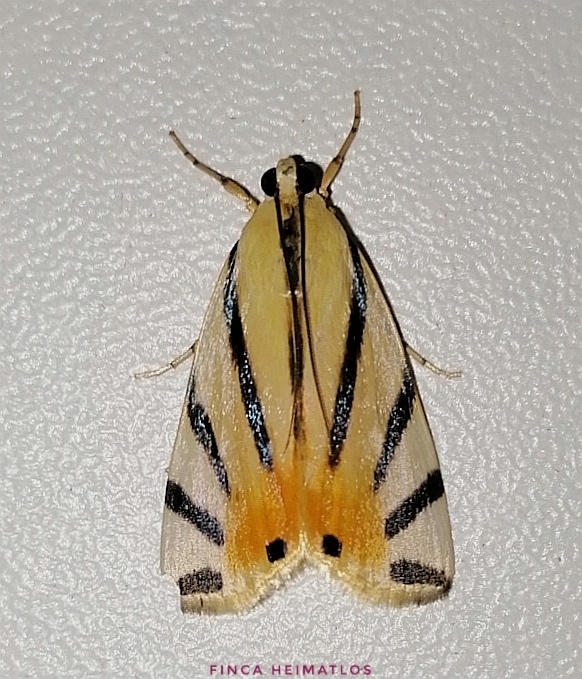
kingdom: Animalia
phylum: Arthropoda
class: Insecta
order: Lepidoptera
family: Crambidae
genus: Dichogama
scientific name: Dichogama prognealis
